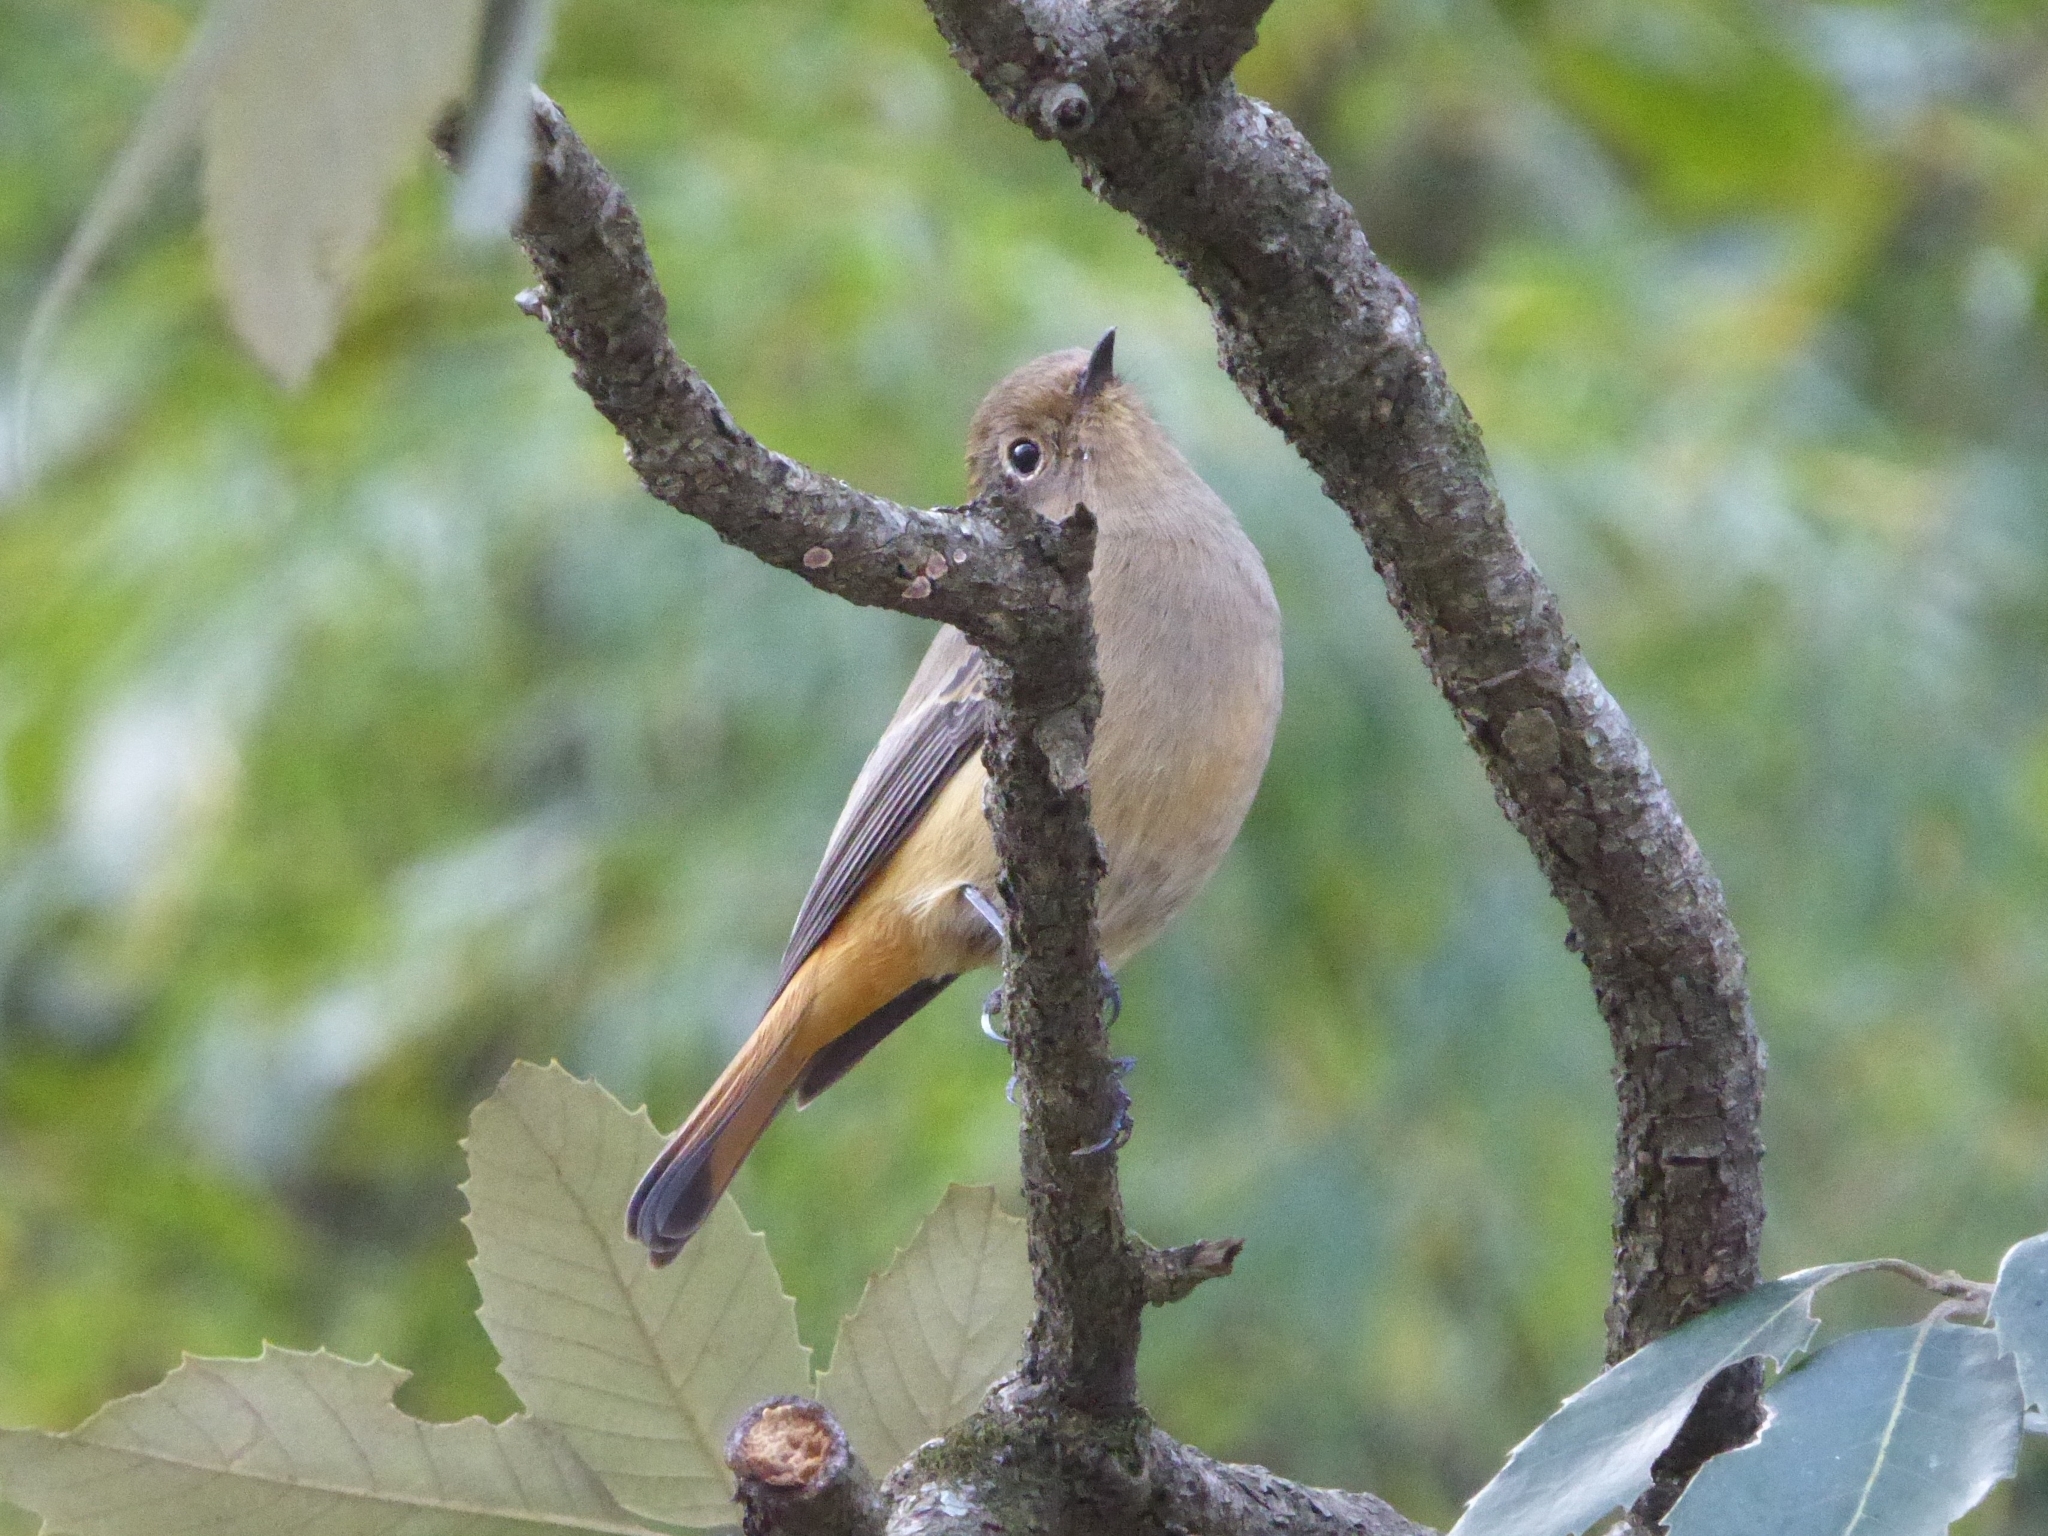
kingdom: Animalia
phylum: Chordata
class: Aves
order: Passeriformes
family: Muscicapidae
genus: Phoenicurus
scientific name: Phoenicurus frontalis
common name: Blue-fronted redstart
